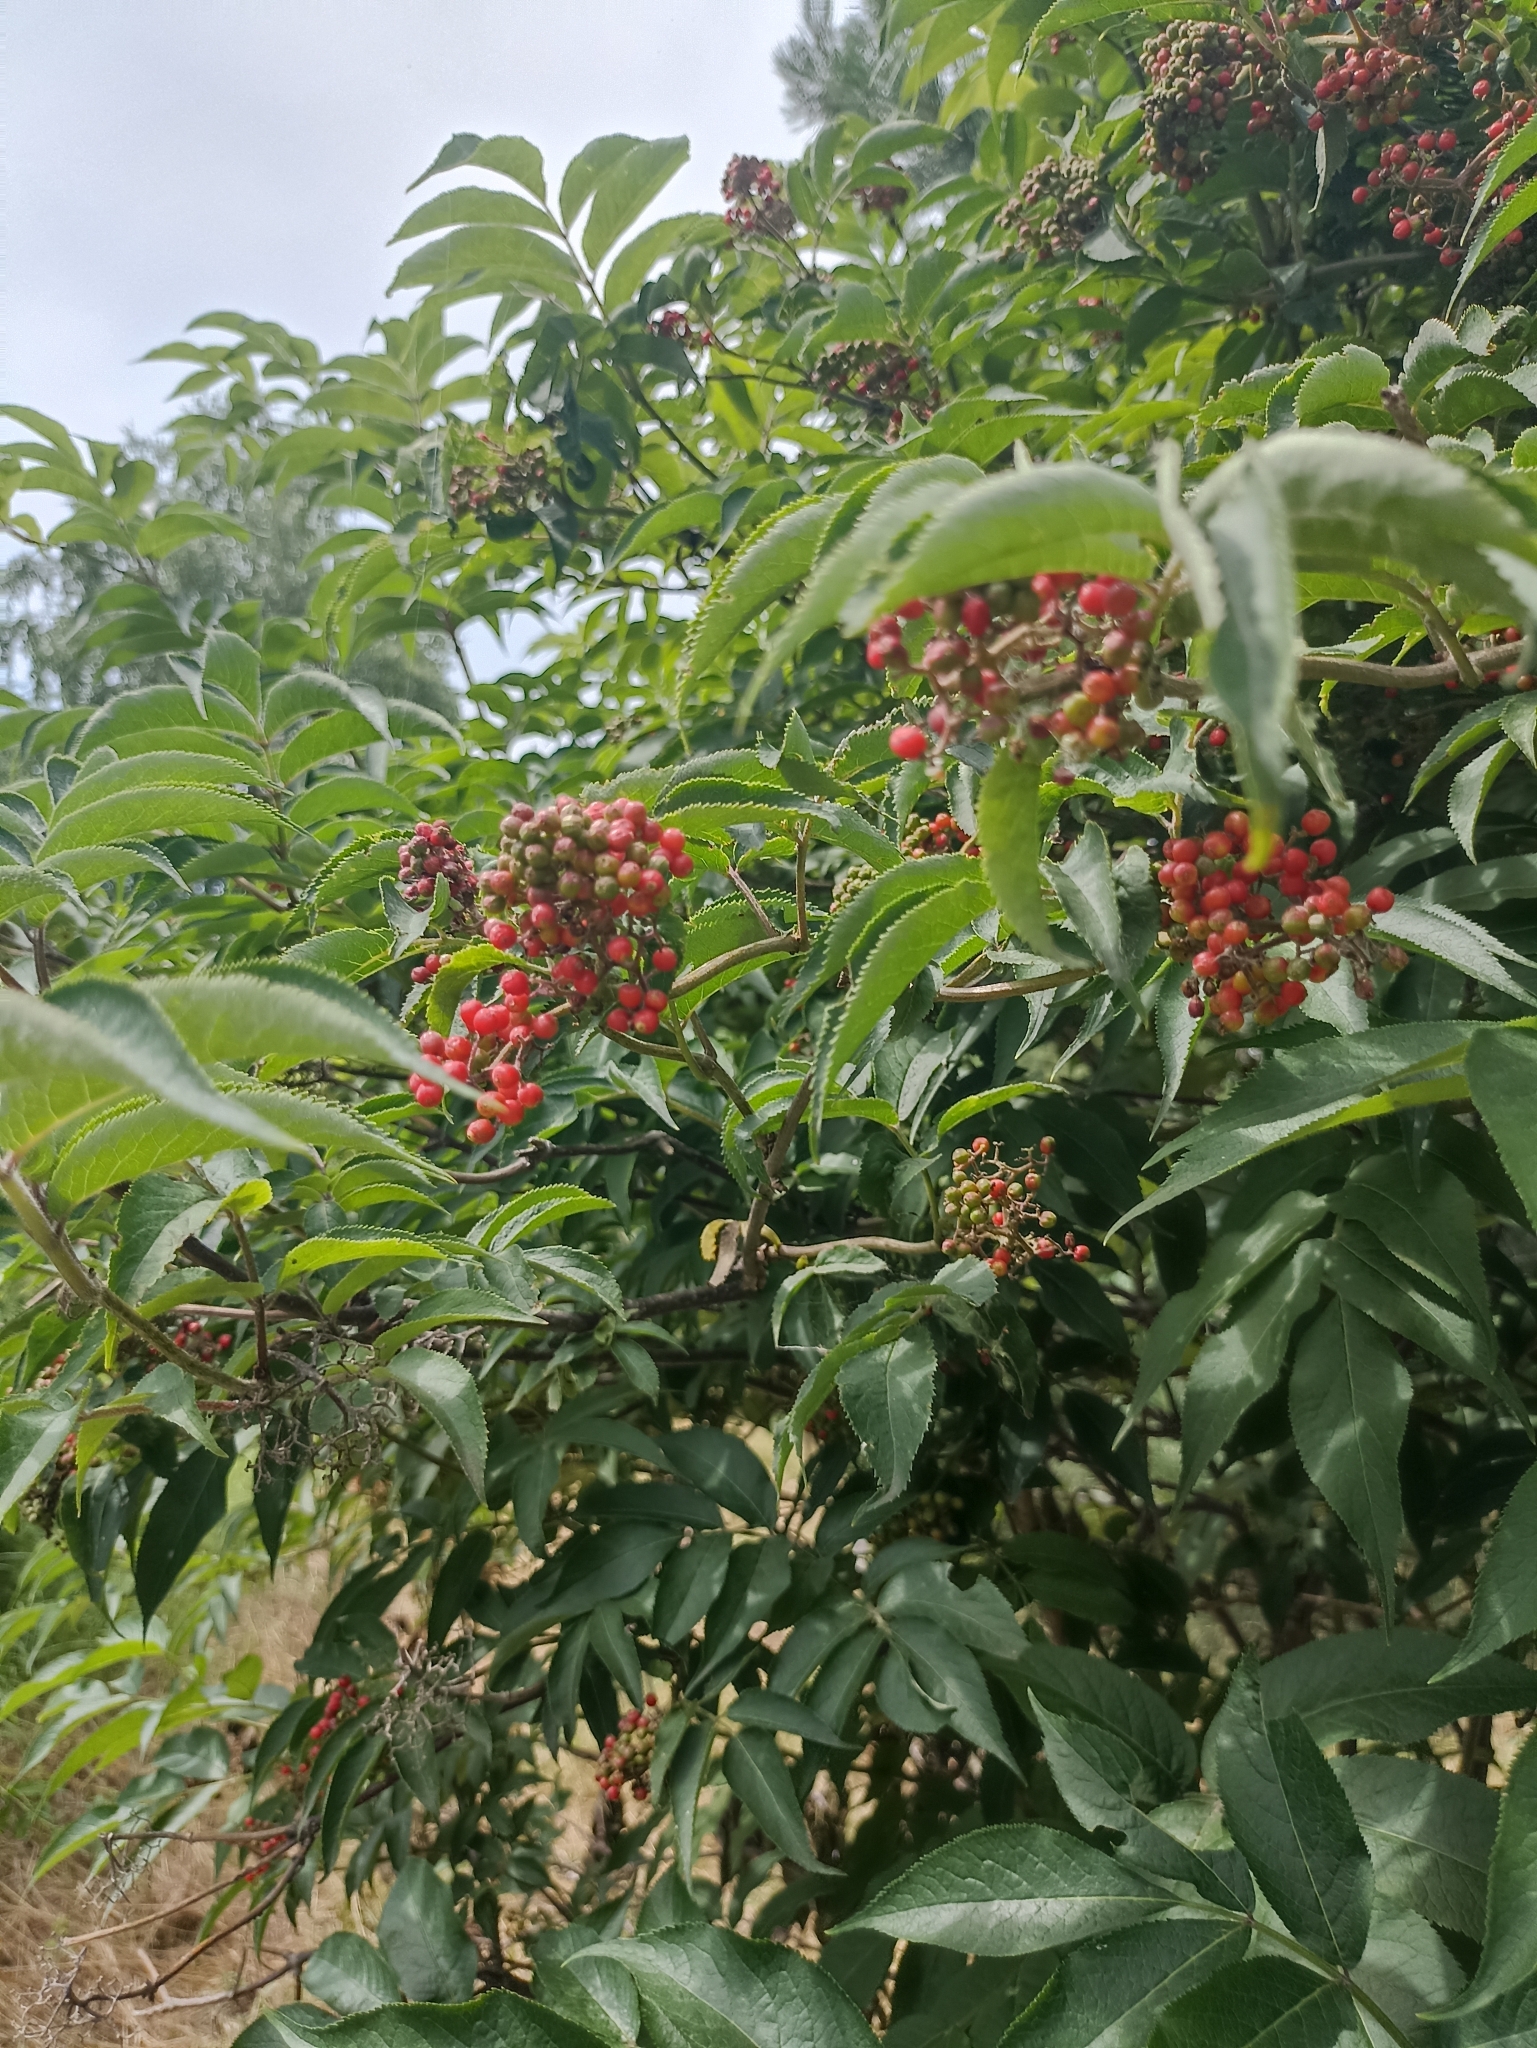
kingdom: Plantae
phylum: Tracheophyta
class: Magnoliopsida
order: Dipsacales
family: Viburnaceae
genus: Sambucus
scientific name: Sambucus sibirica
